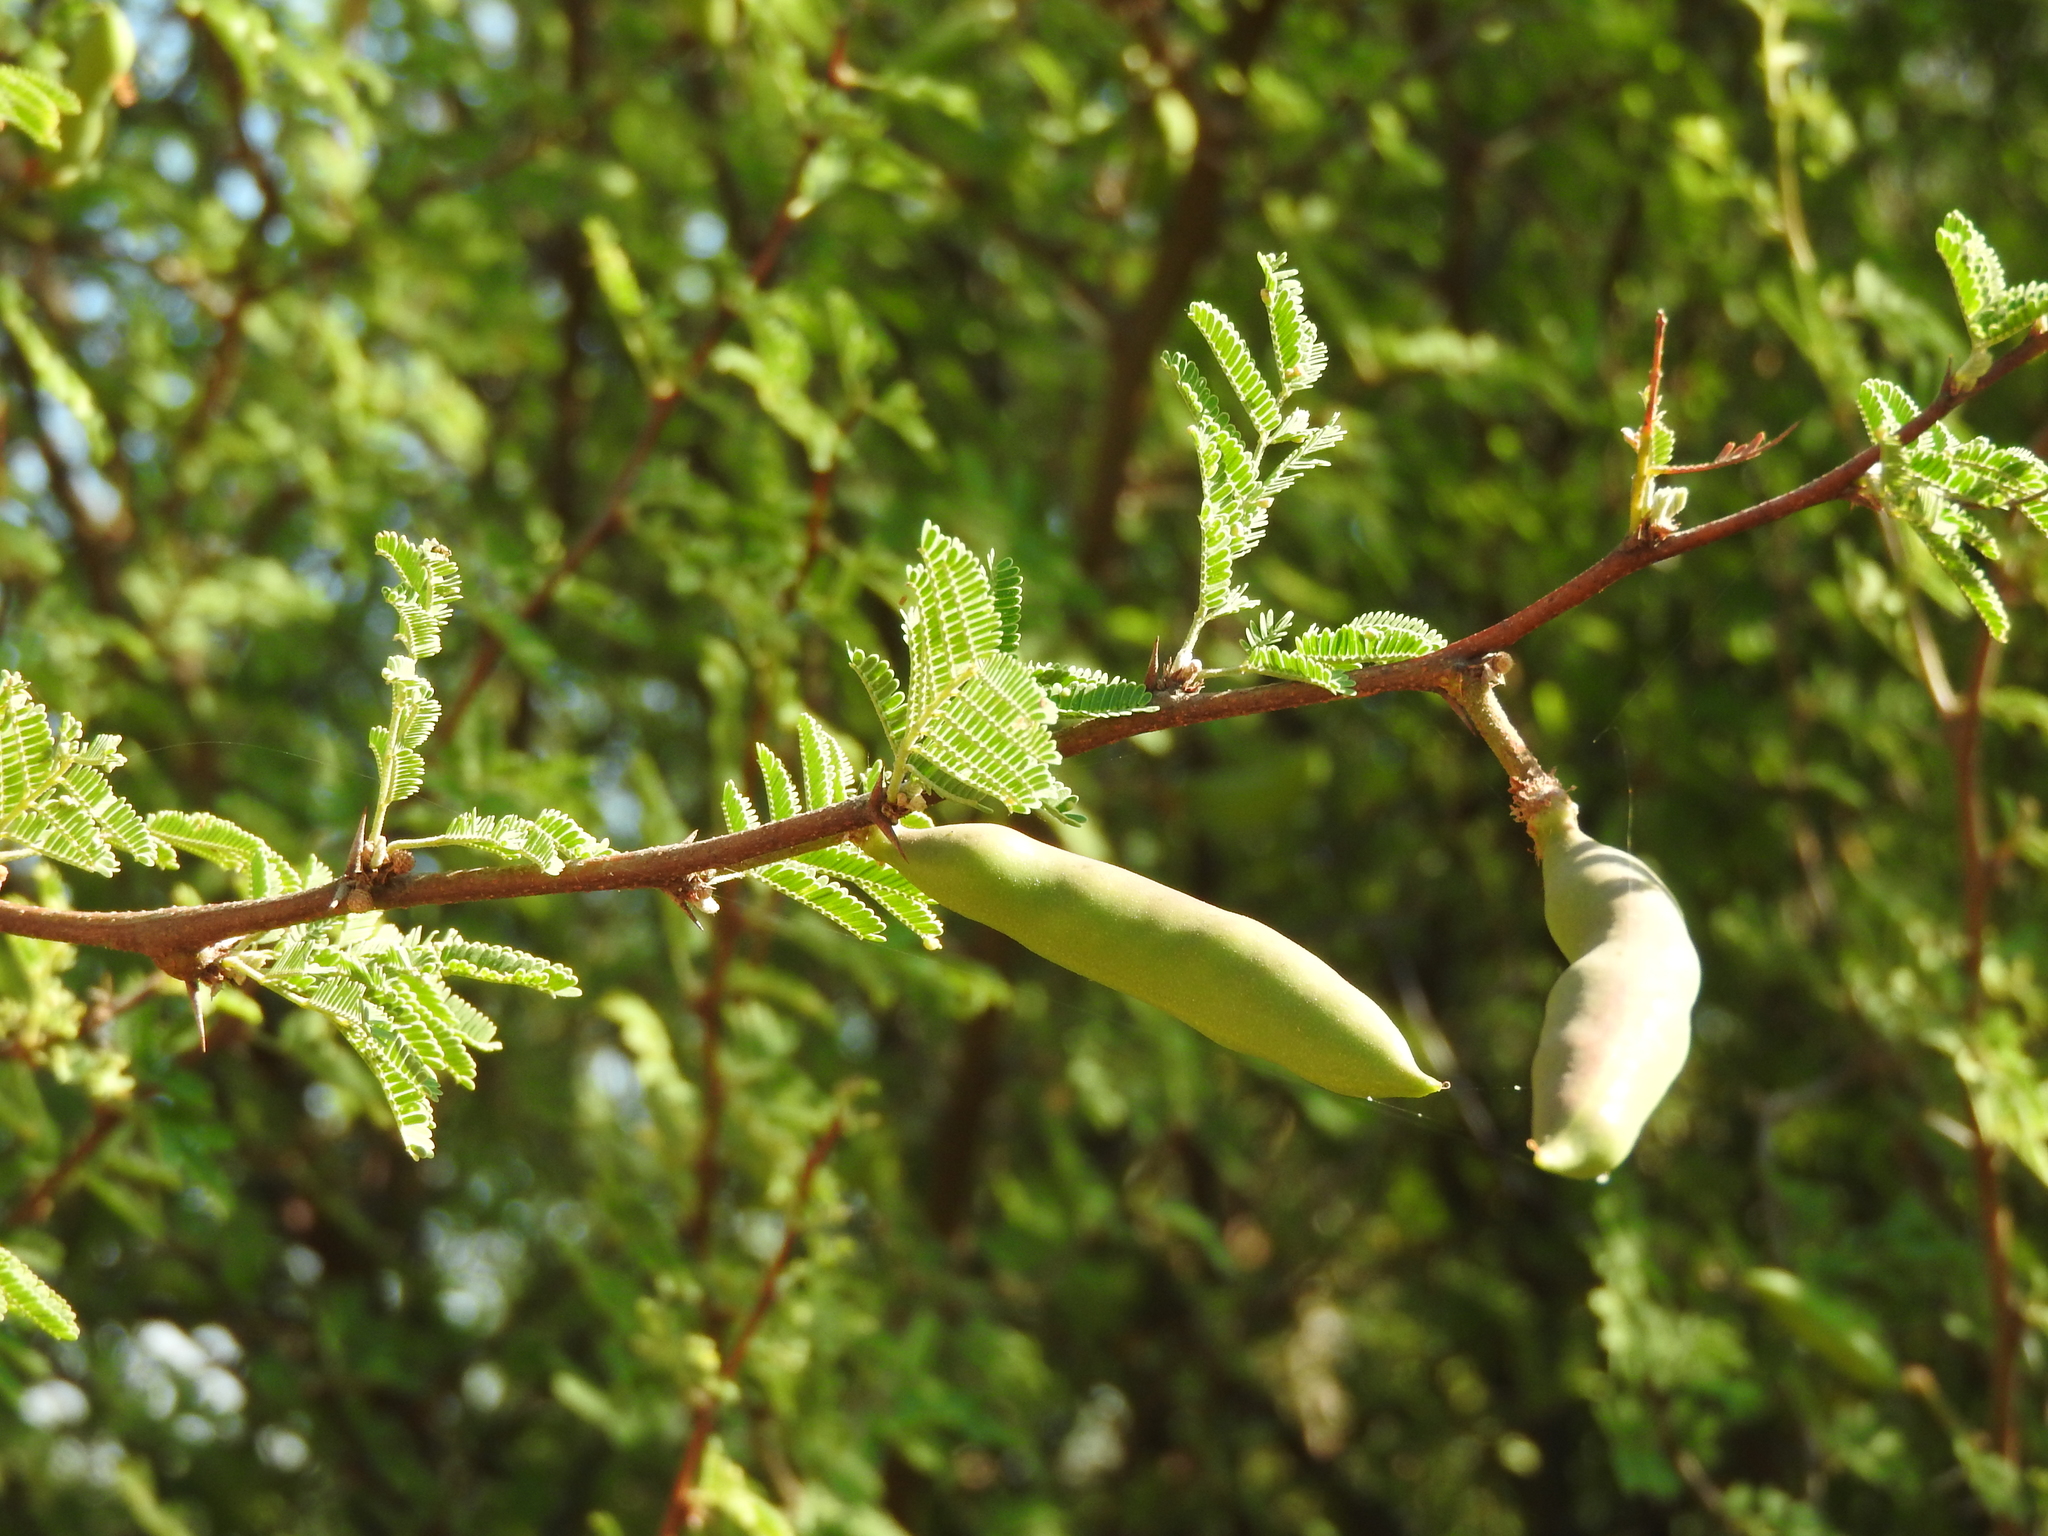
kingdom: Plantae
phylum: Tracheophyta
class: Magnoliopsida
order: Fabales
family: Fabaceae
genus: Vachellia
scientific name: Vachellia farnesiana
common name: Sweet acacia
